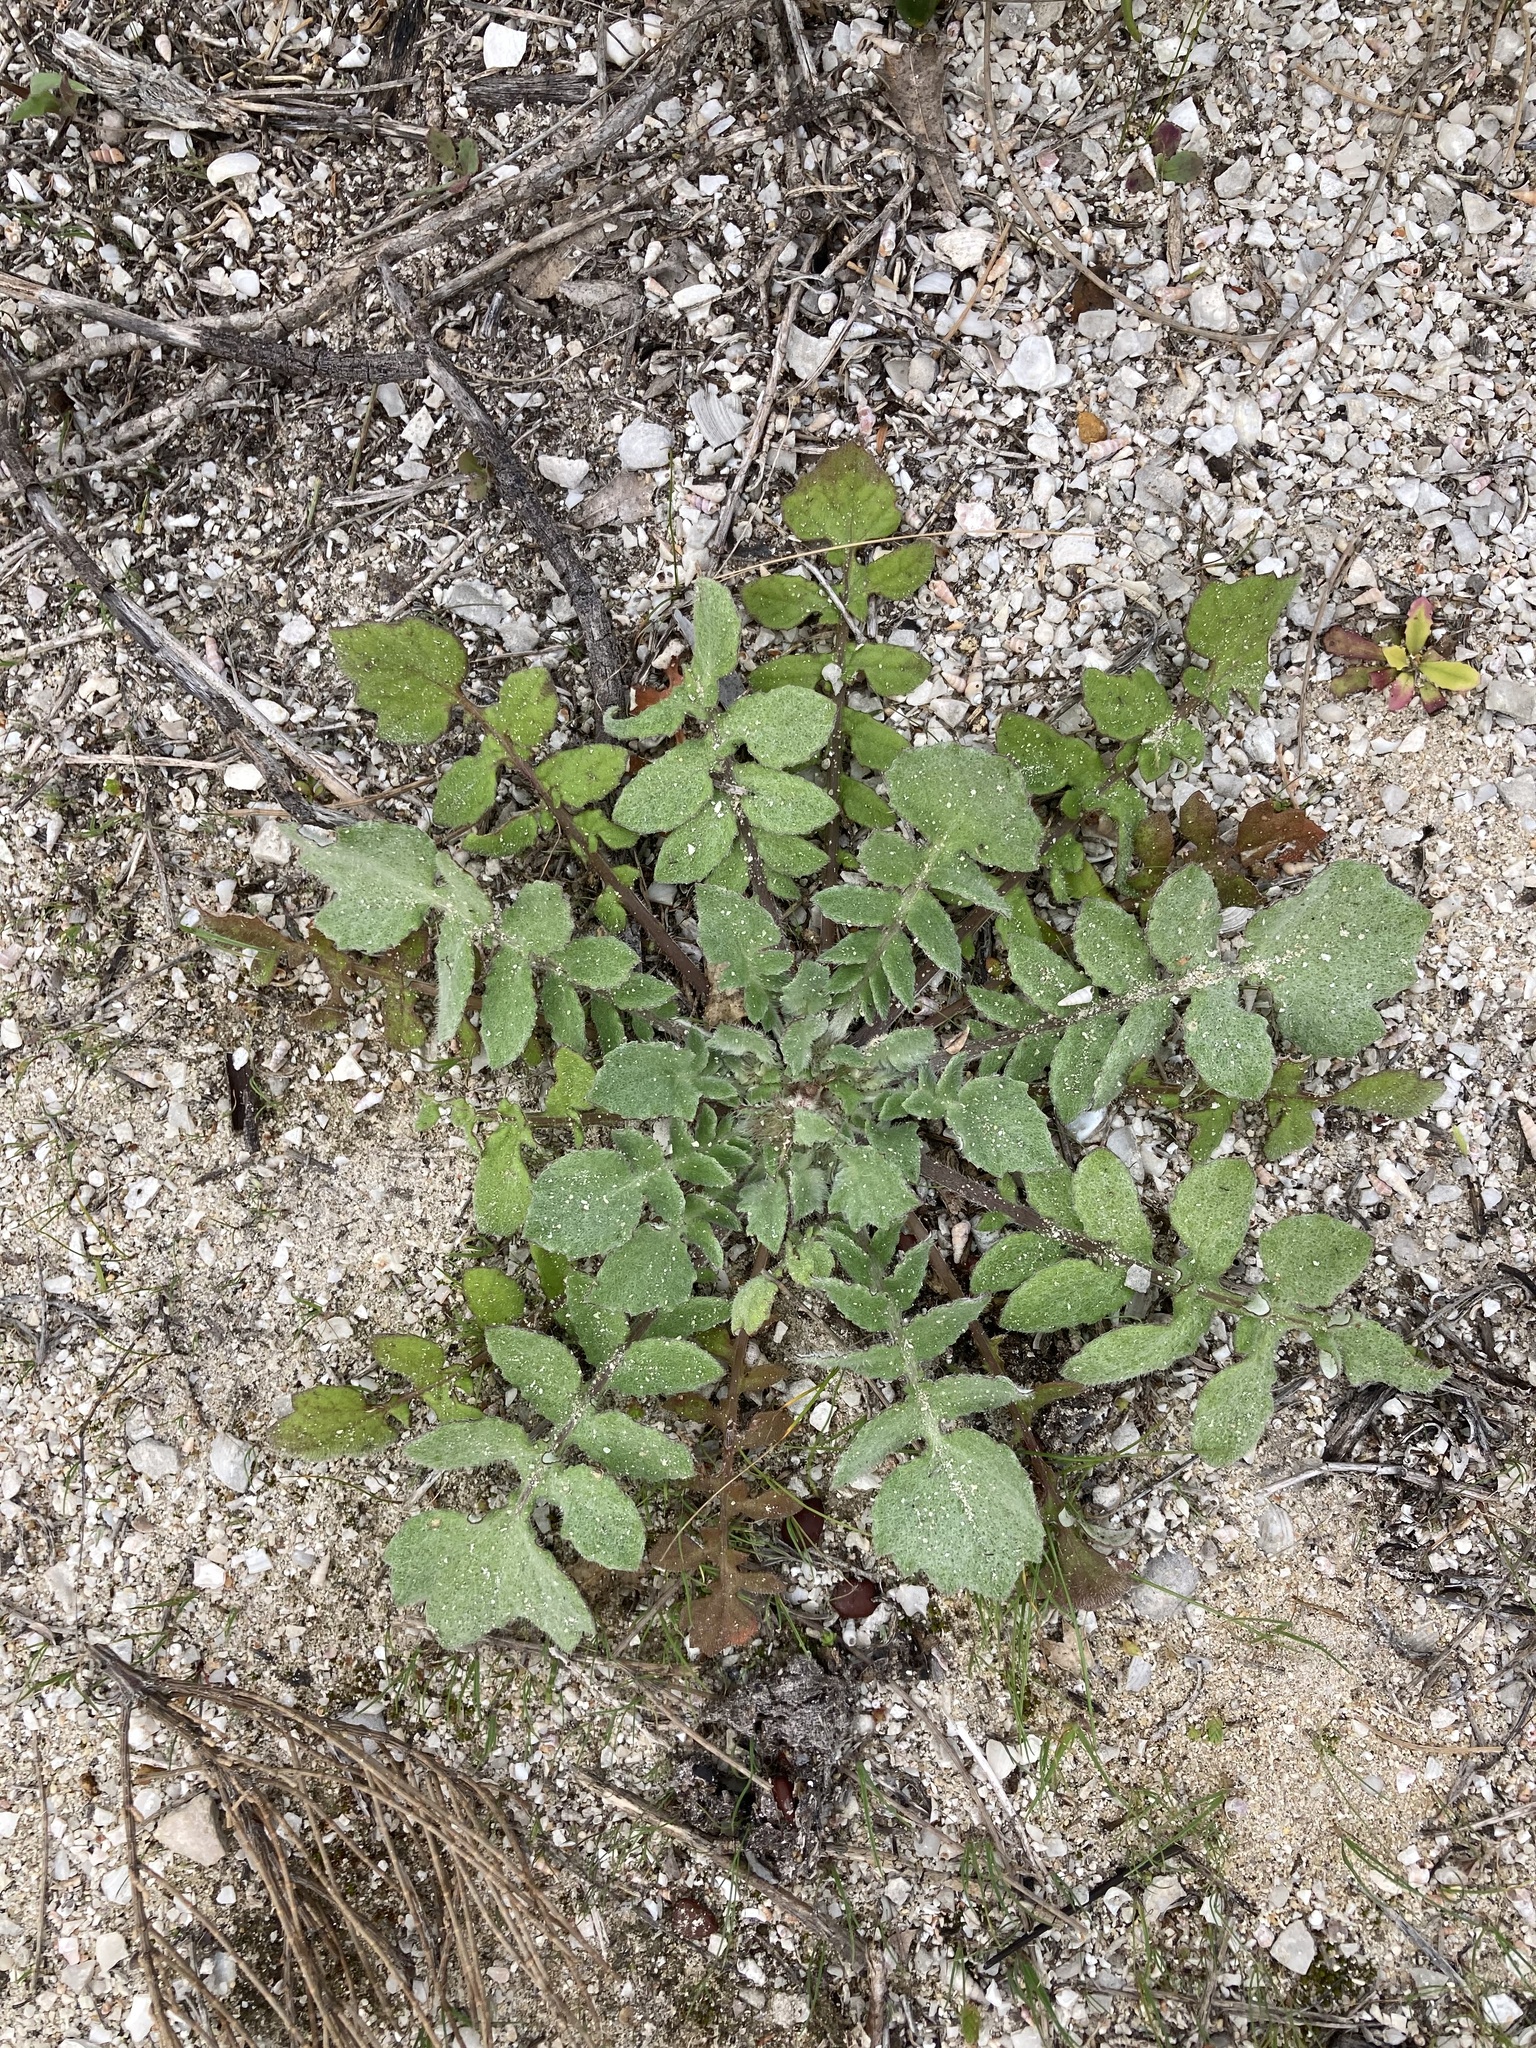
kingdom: Plantae
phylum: Tracheophyta
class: Magnoliopsida
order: Asterales
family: Asteraceae
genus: Arctotheca
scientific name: Arctotheca calendula
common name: Capeweed
